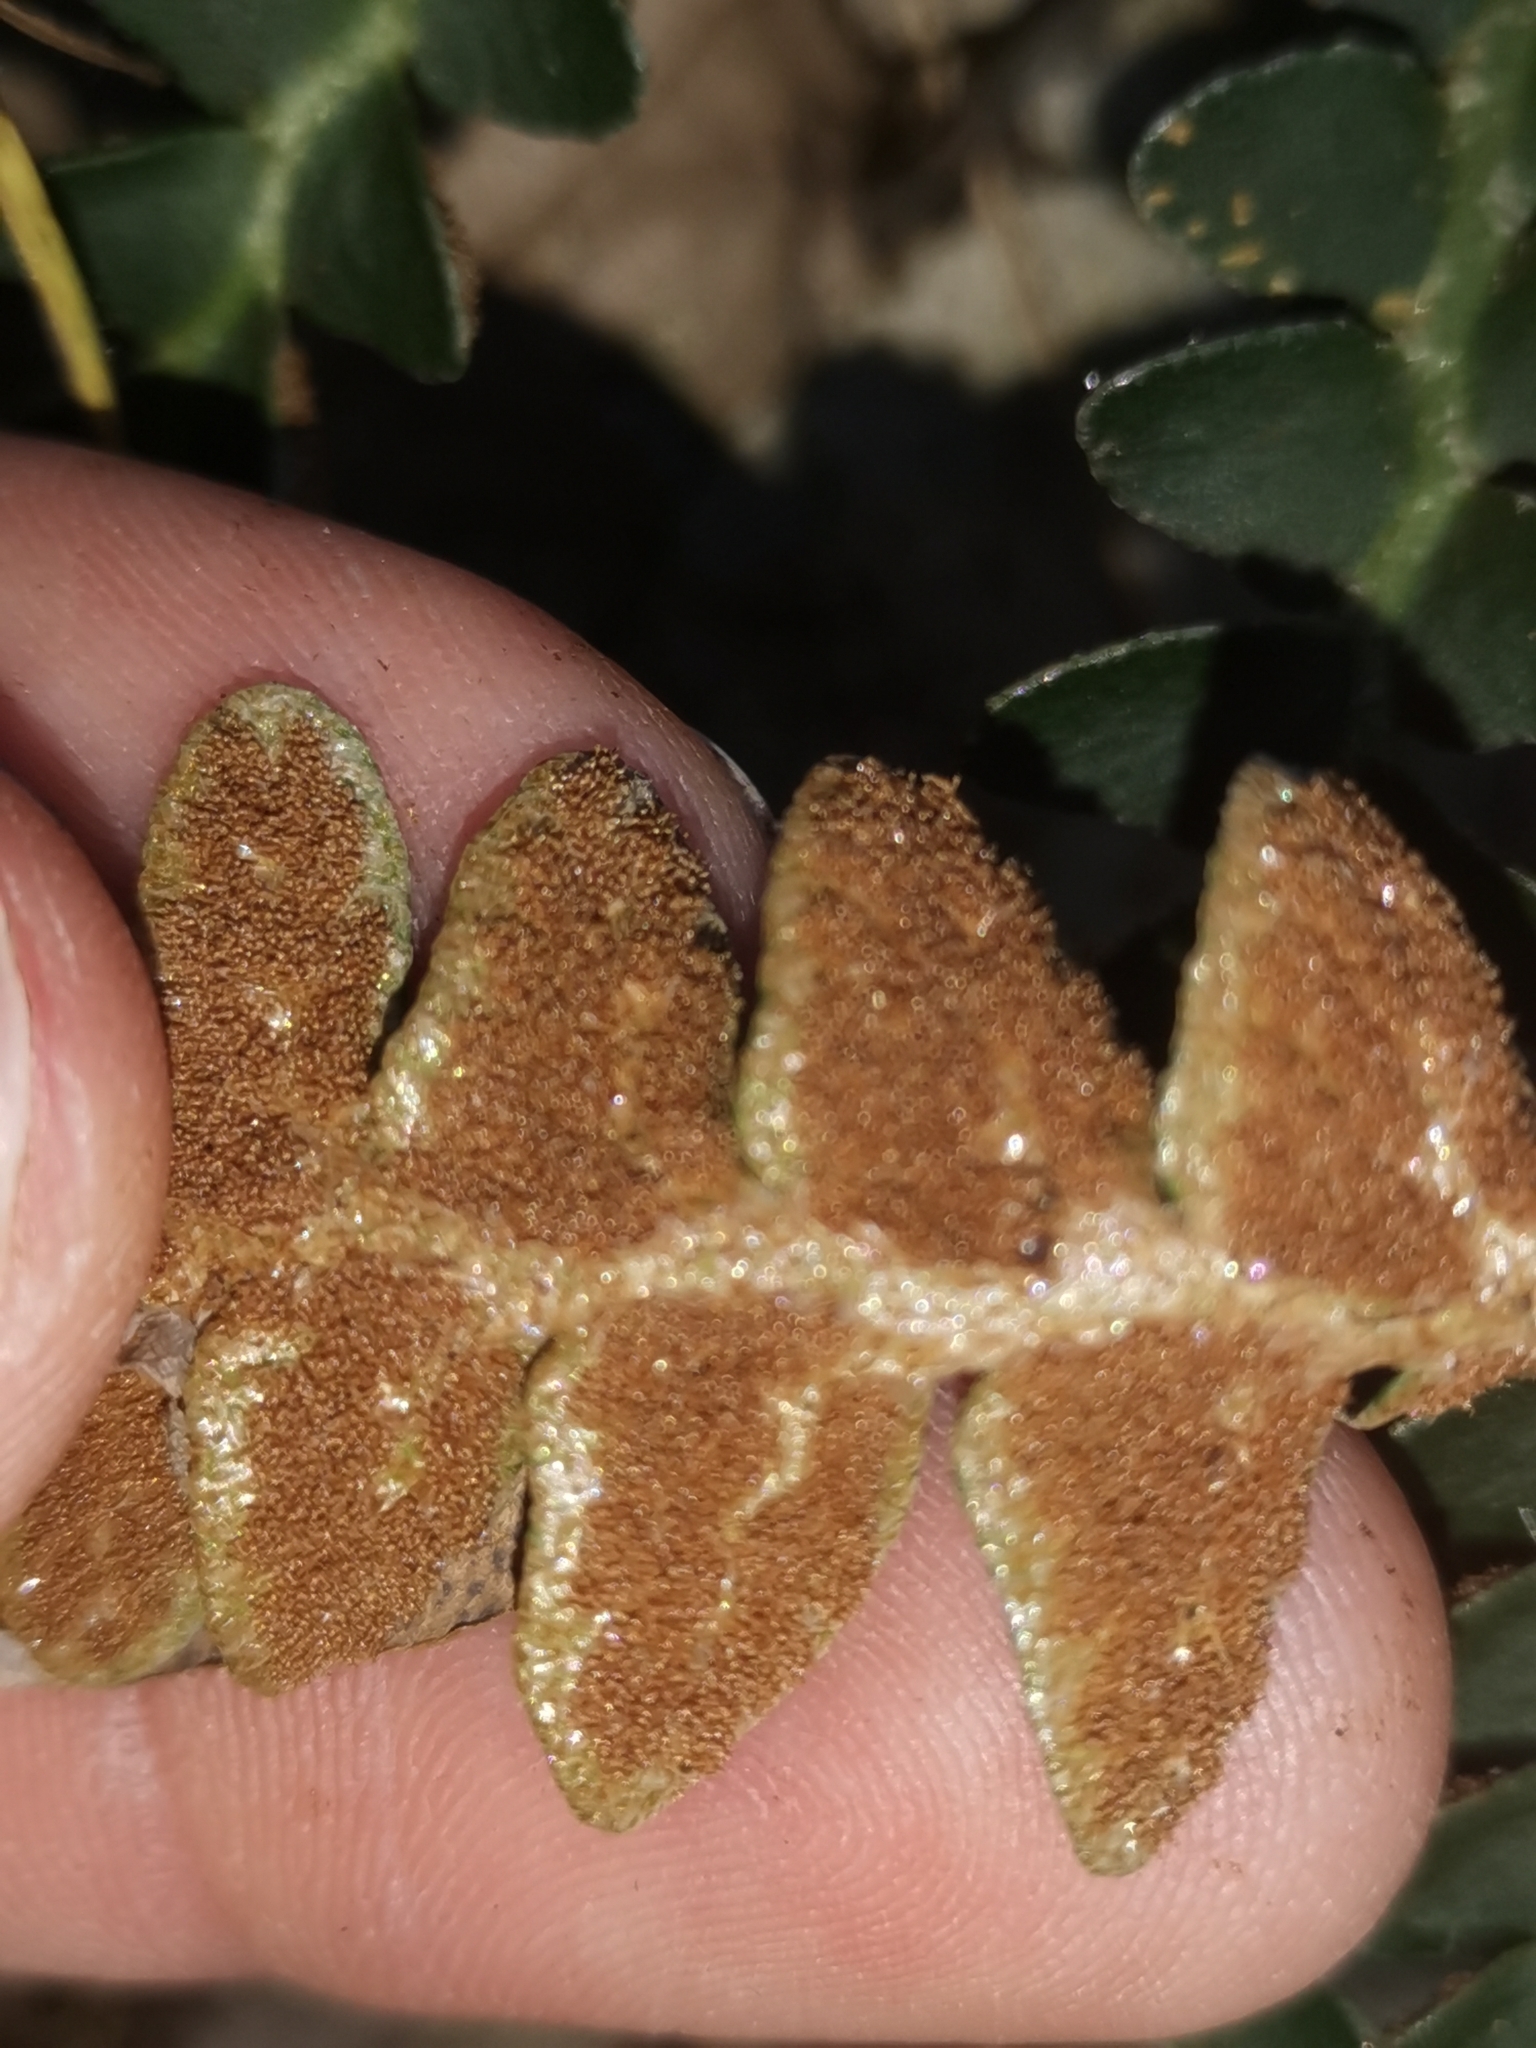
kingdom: Plantae
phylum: Tracheophyta
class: Polypodiopsida
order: Polypodiales
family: Aspleniaceae
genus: Asplenium
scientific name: Asplenium ceterach
